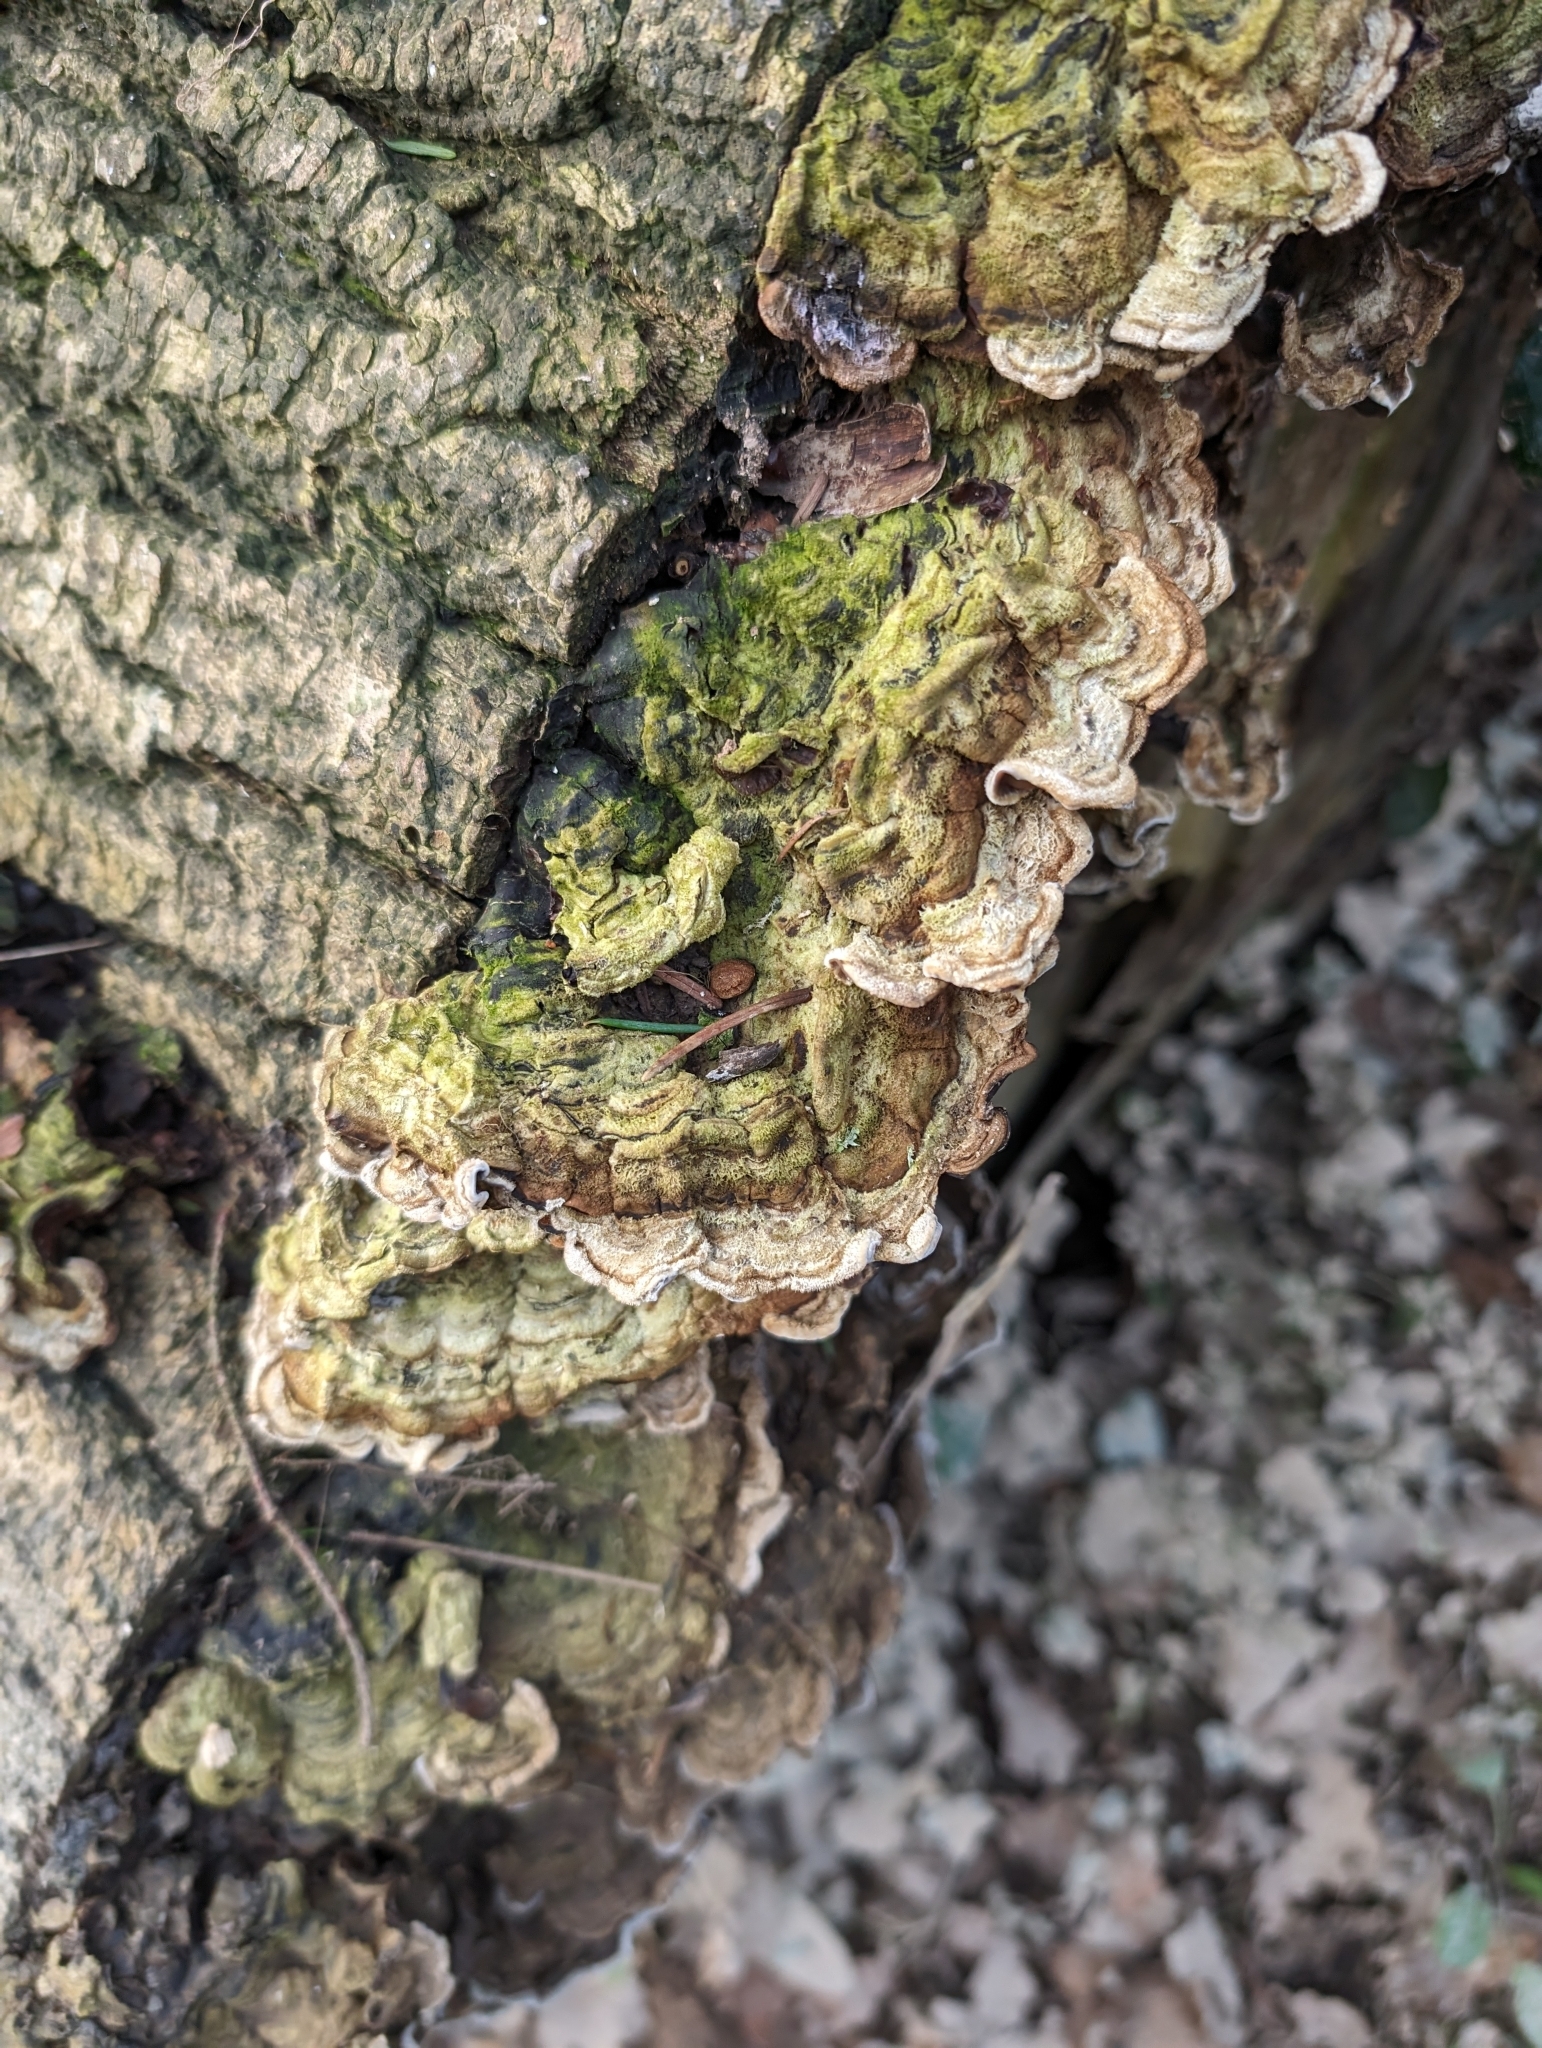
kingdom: Fungi
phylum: Basidiomycota
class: Agaricomycetes
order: Auriculariales
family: Auriculariaceae
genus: Auricularia
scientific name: Auricularia mesenterica
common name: Tripe fungus
